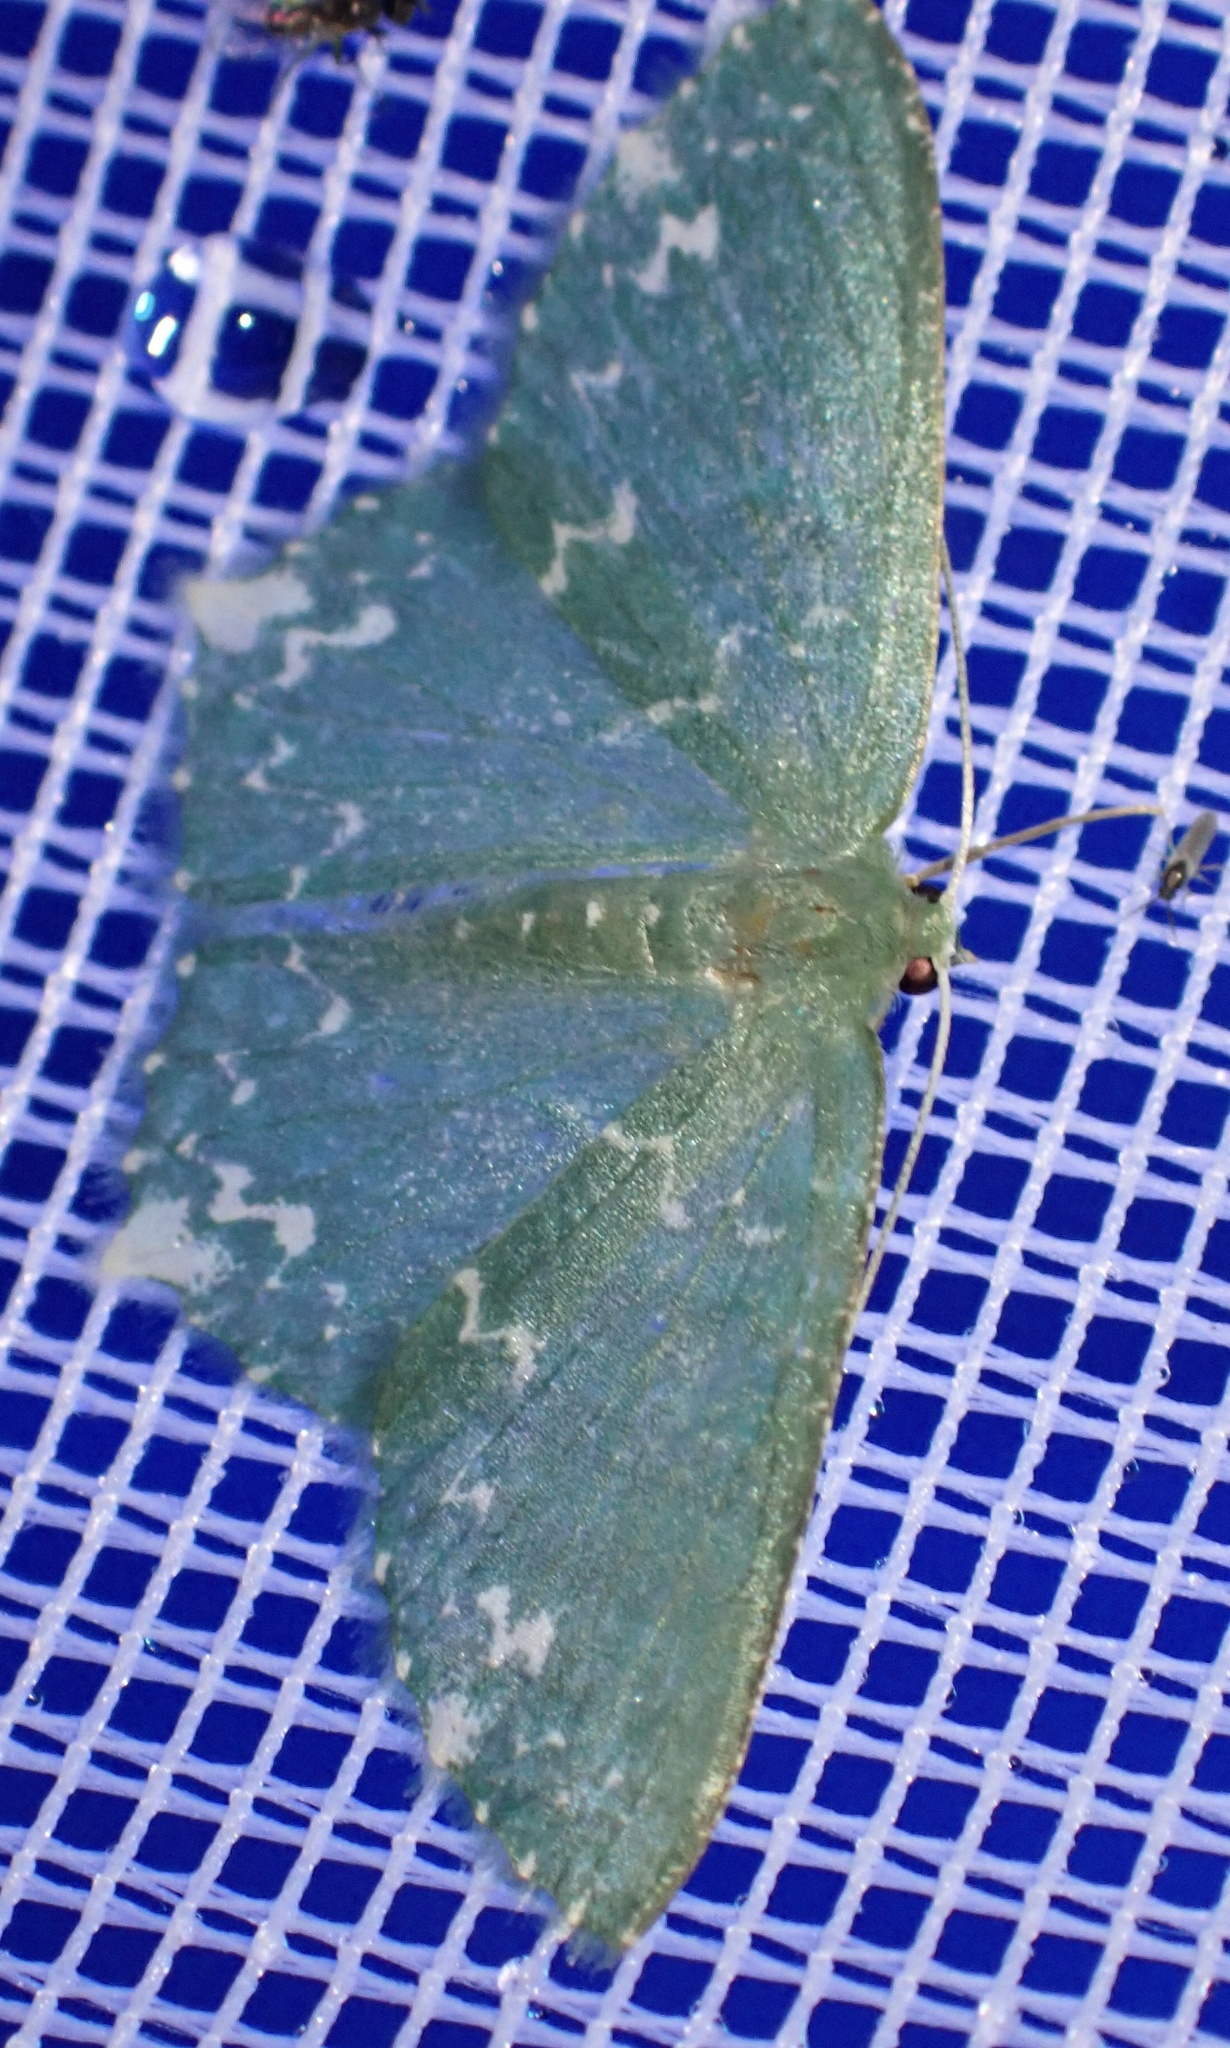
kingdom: Animalia
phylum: Arthropoda
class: Insecta
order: Lepidoptera
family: Geometridae
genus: Maxates
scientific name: Maxates imitans
